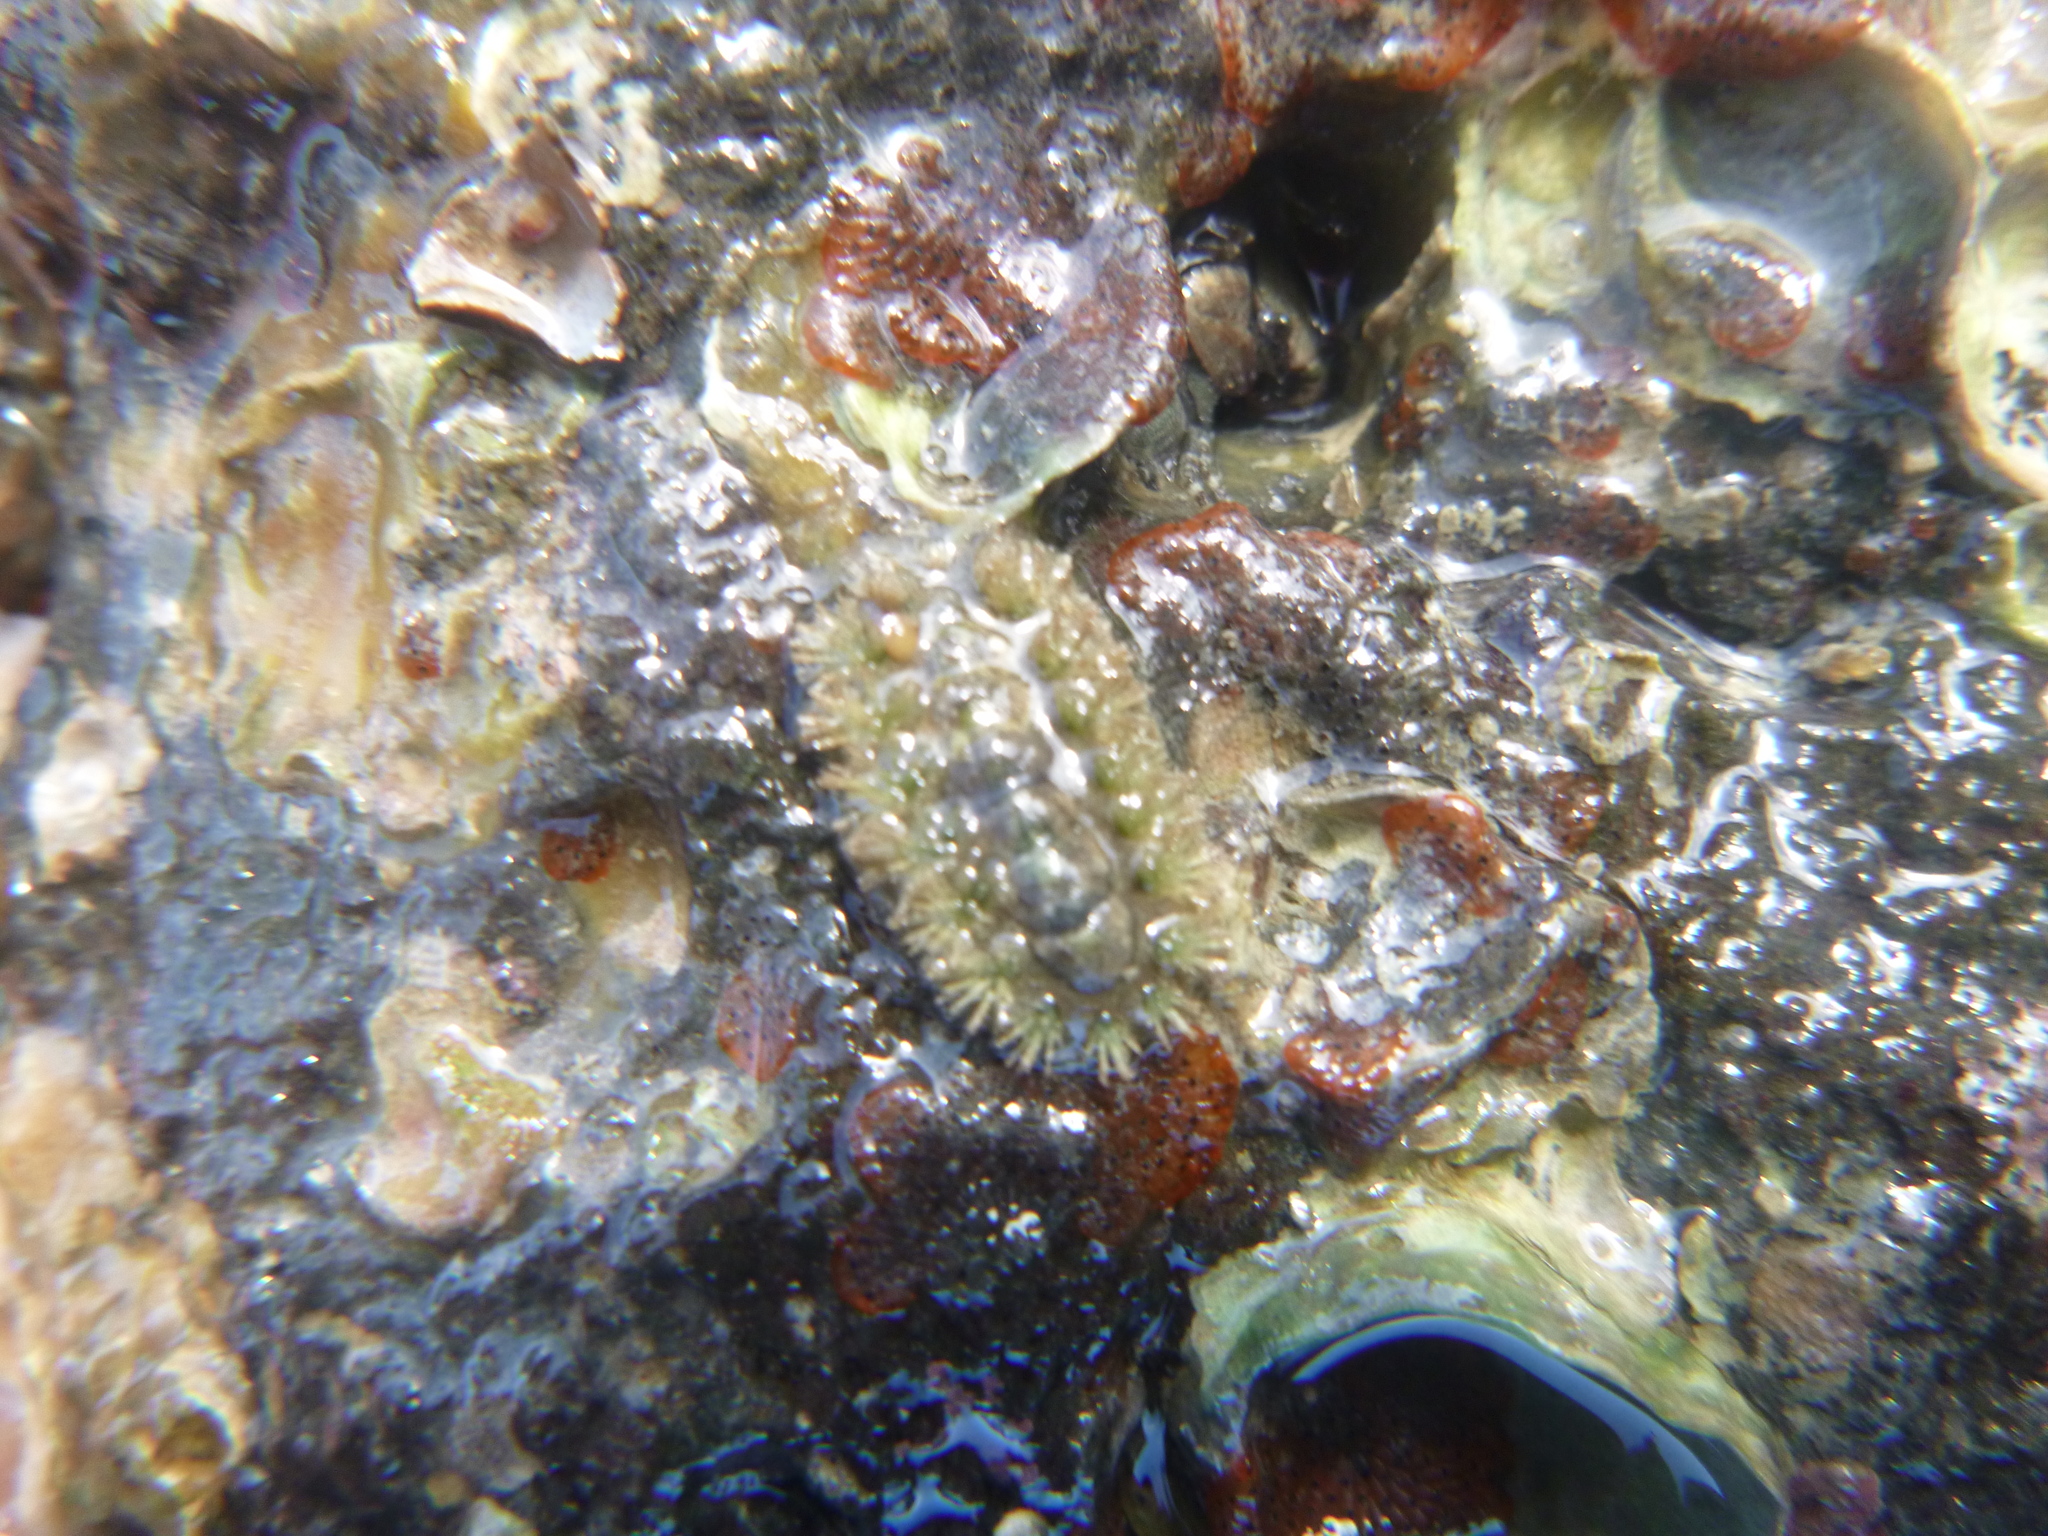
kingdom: Animalia
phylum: Mollusca
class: Polyplacophora
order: Chitonida
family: Acanthochitonidae
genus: Acanthochitona
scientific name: Acanthochitona zelandica
